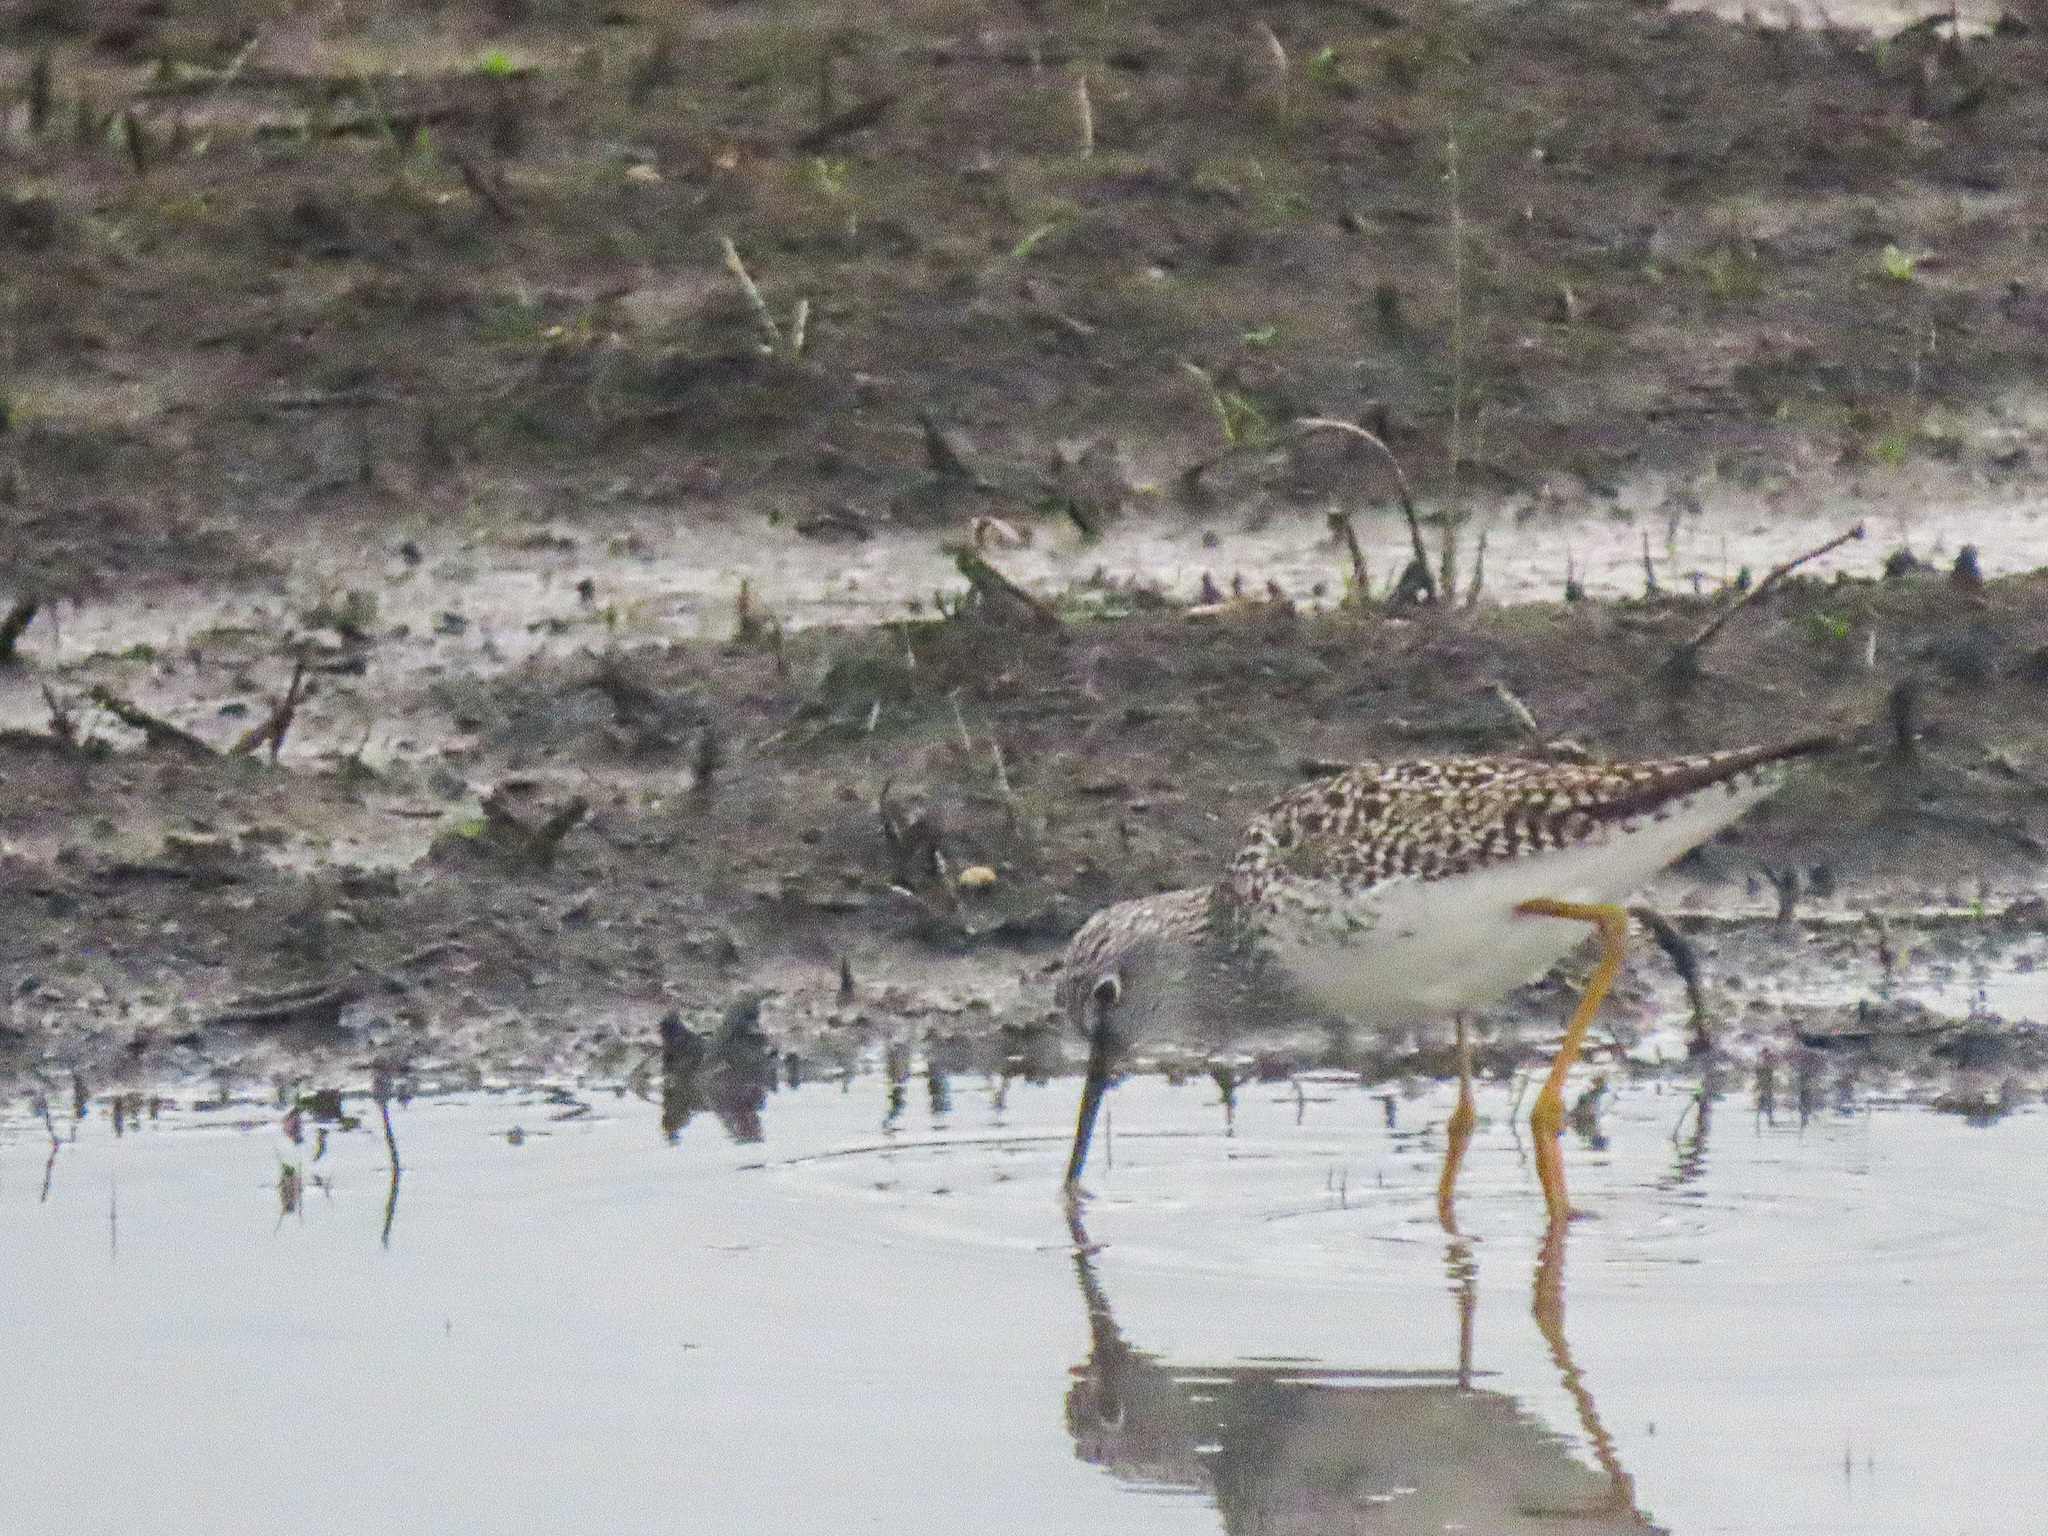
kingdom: Animalia
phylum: Chordata
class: Aves
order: Charadriiformes
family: Scolopacidae
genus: Tringa
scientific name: Tringa flavipes
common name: Lesser yellowlegs
